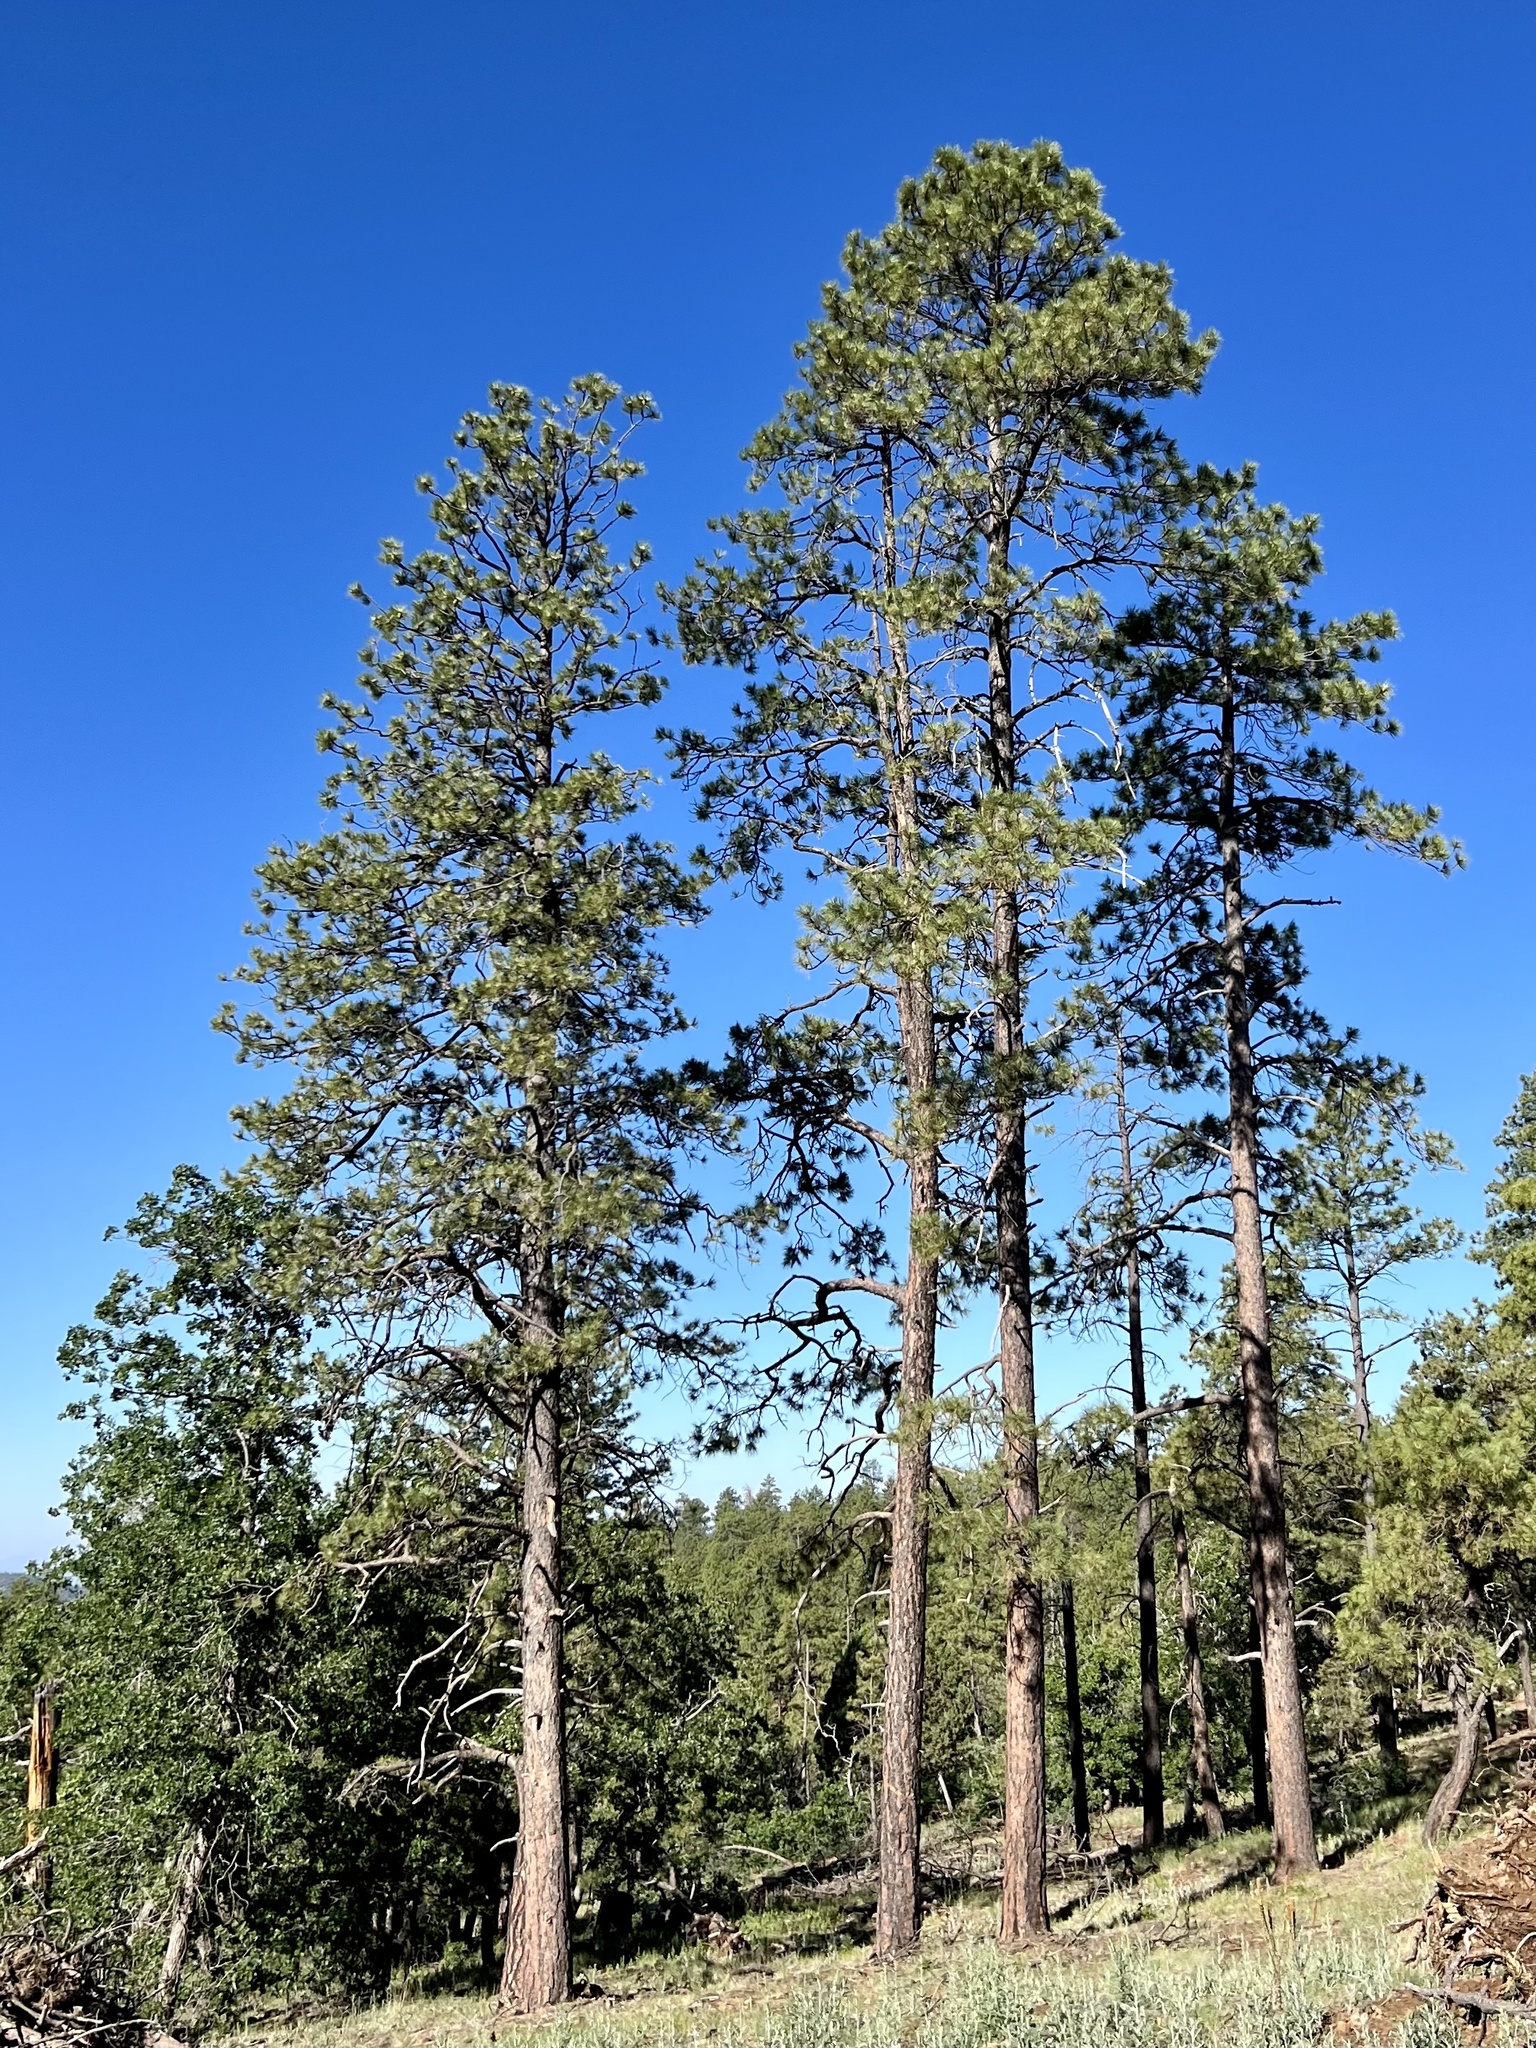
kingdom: Plantae
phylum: Tracheophyta
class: Pinopsida
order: Pinales
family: Pinaceae
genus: Pinus
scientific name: Pinus ponderosa
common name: Western yellow-pine
